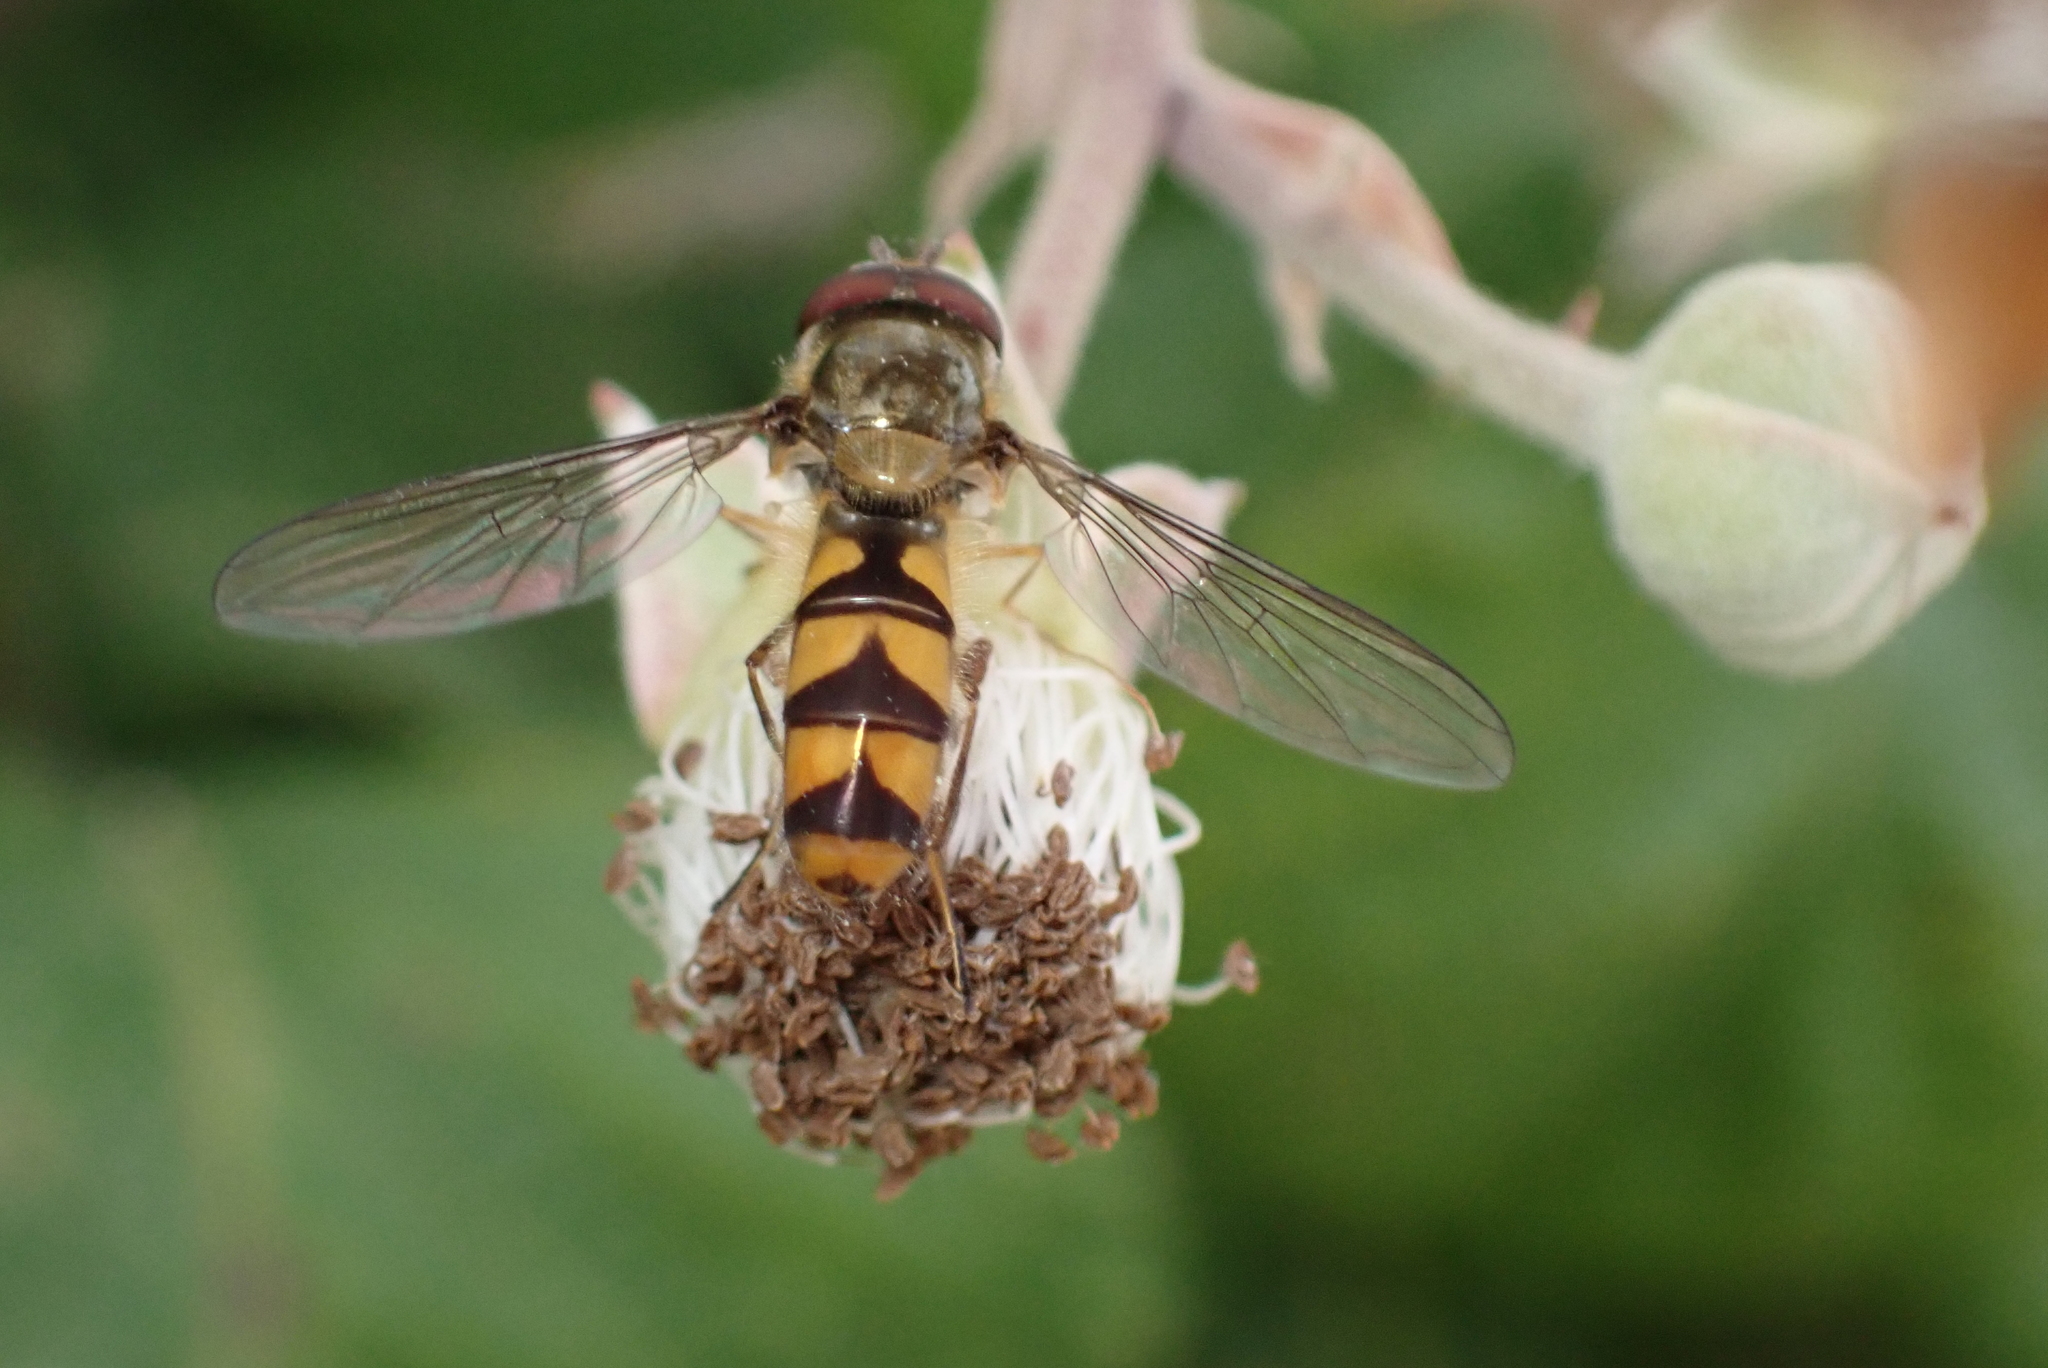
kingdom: Animalia
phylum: Arthropoda
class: Insecta
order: Diptera
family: Syrphidae
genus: Meliscaeva
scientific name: Meliscaeva auricollis
